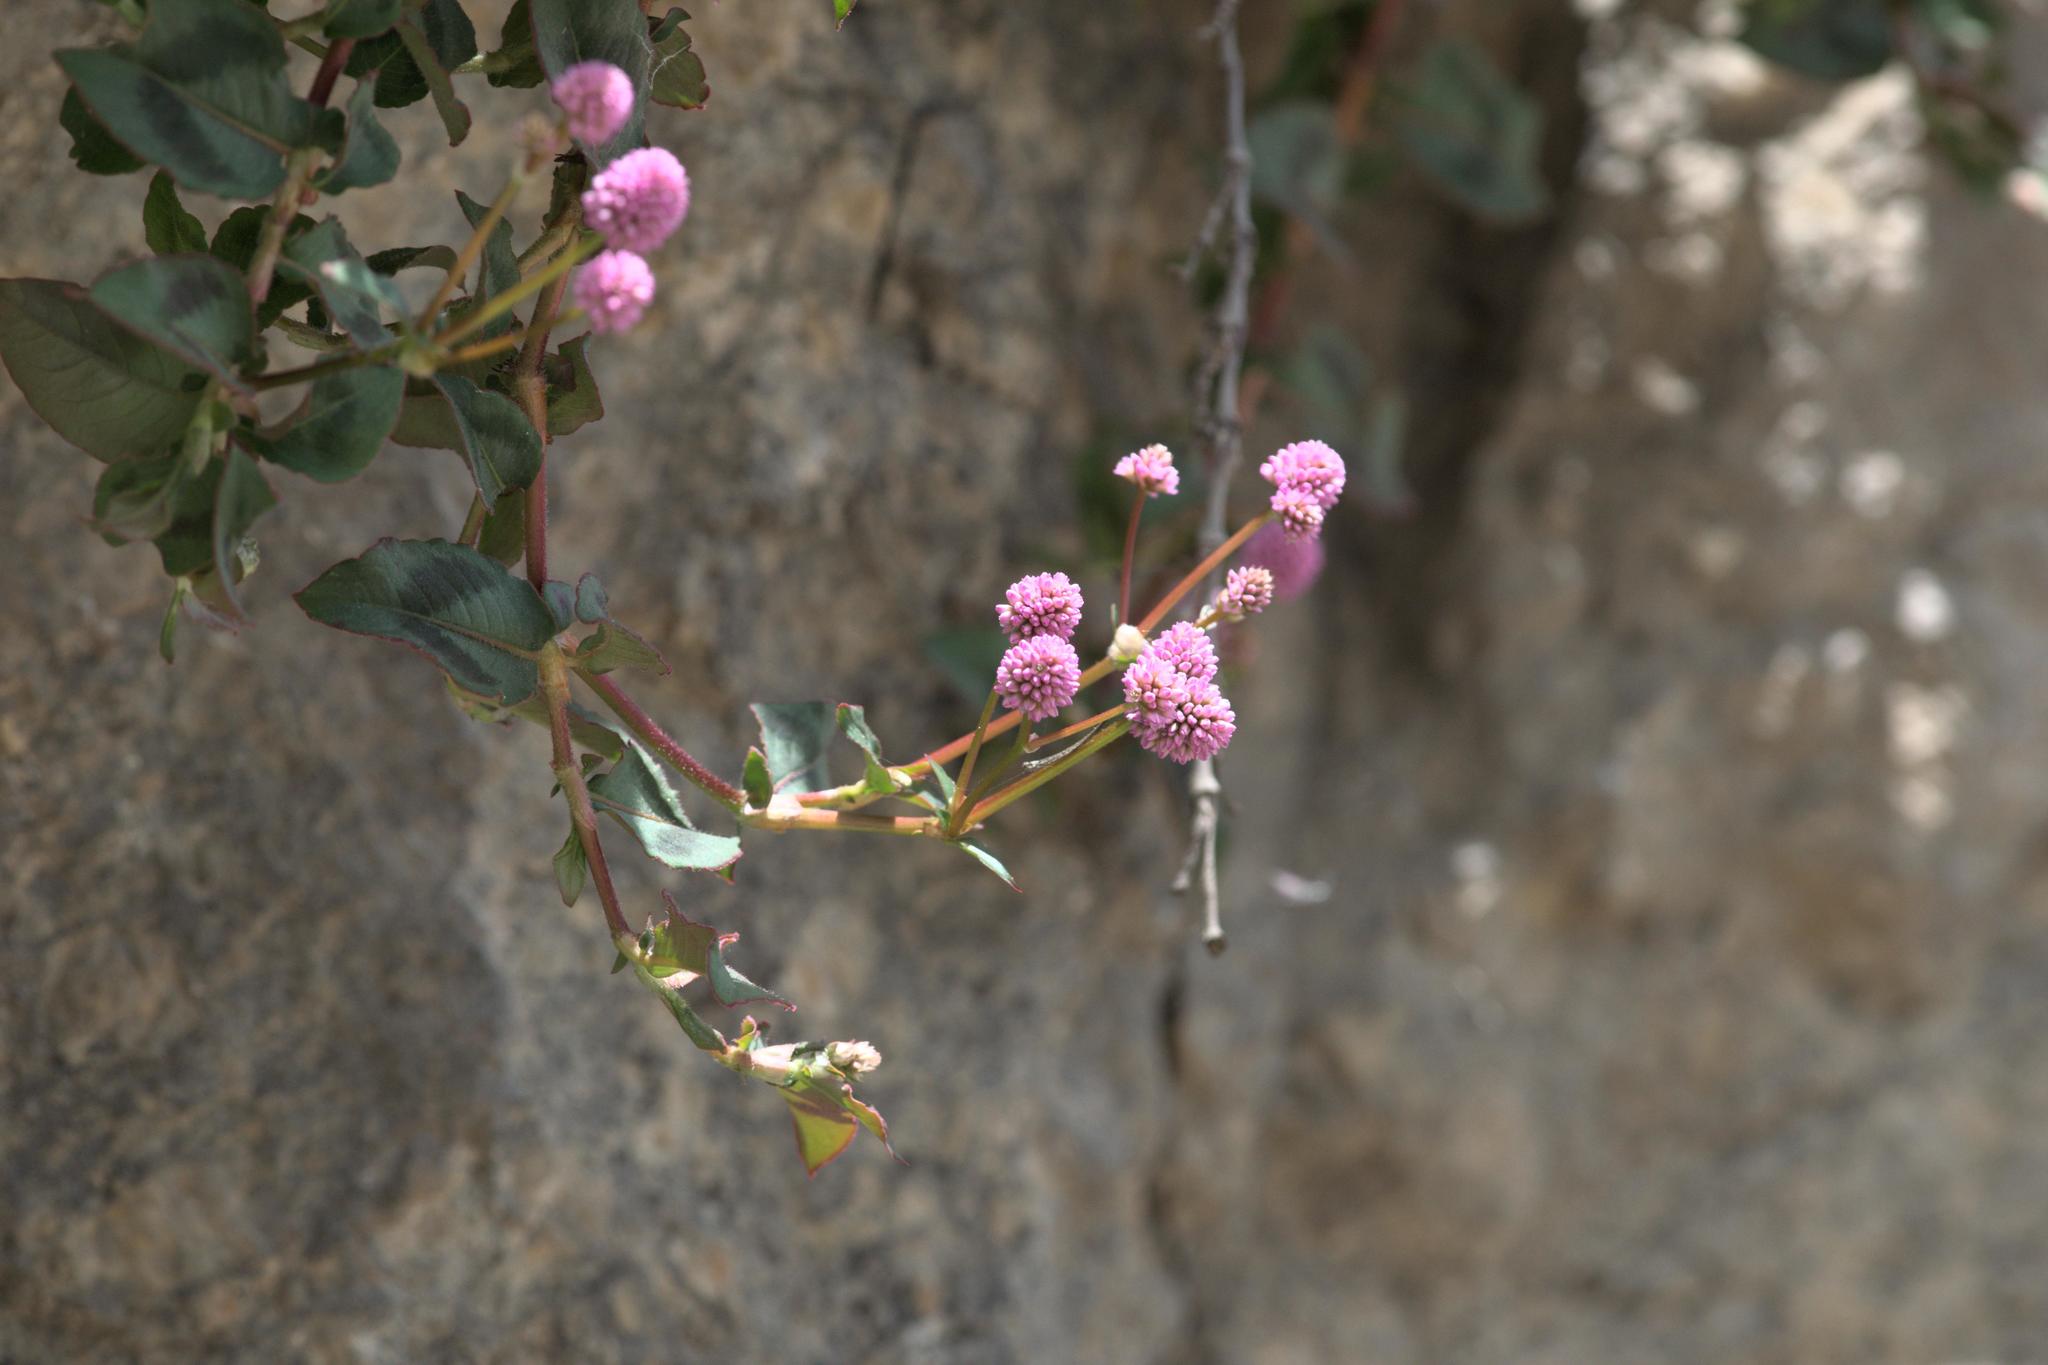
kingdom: Plantae
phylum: Tracheophyta
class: Magnoliopsida
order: Caryophyllales
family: Polygonaceae
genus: Persicaria
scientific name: Persicaria capitata
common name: Pinkhead smartweed
